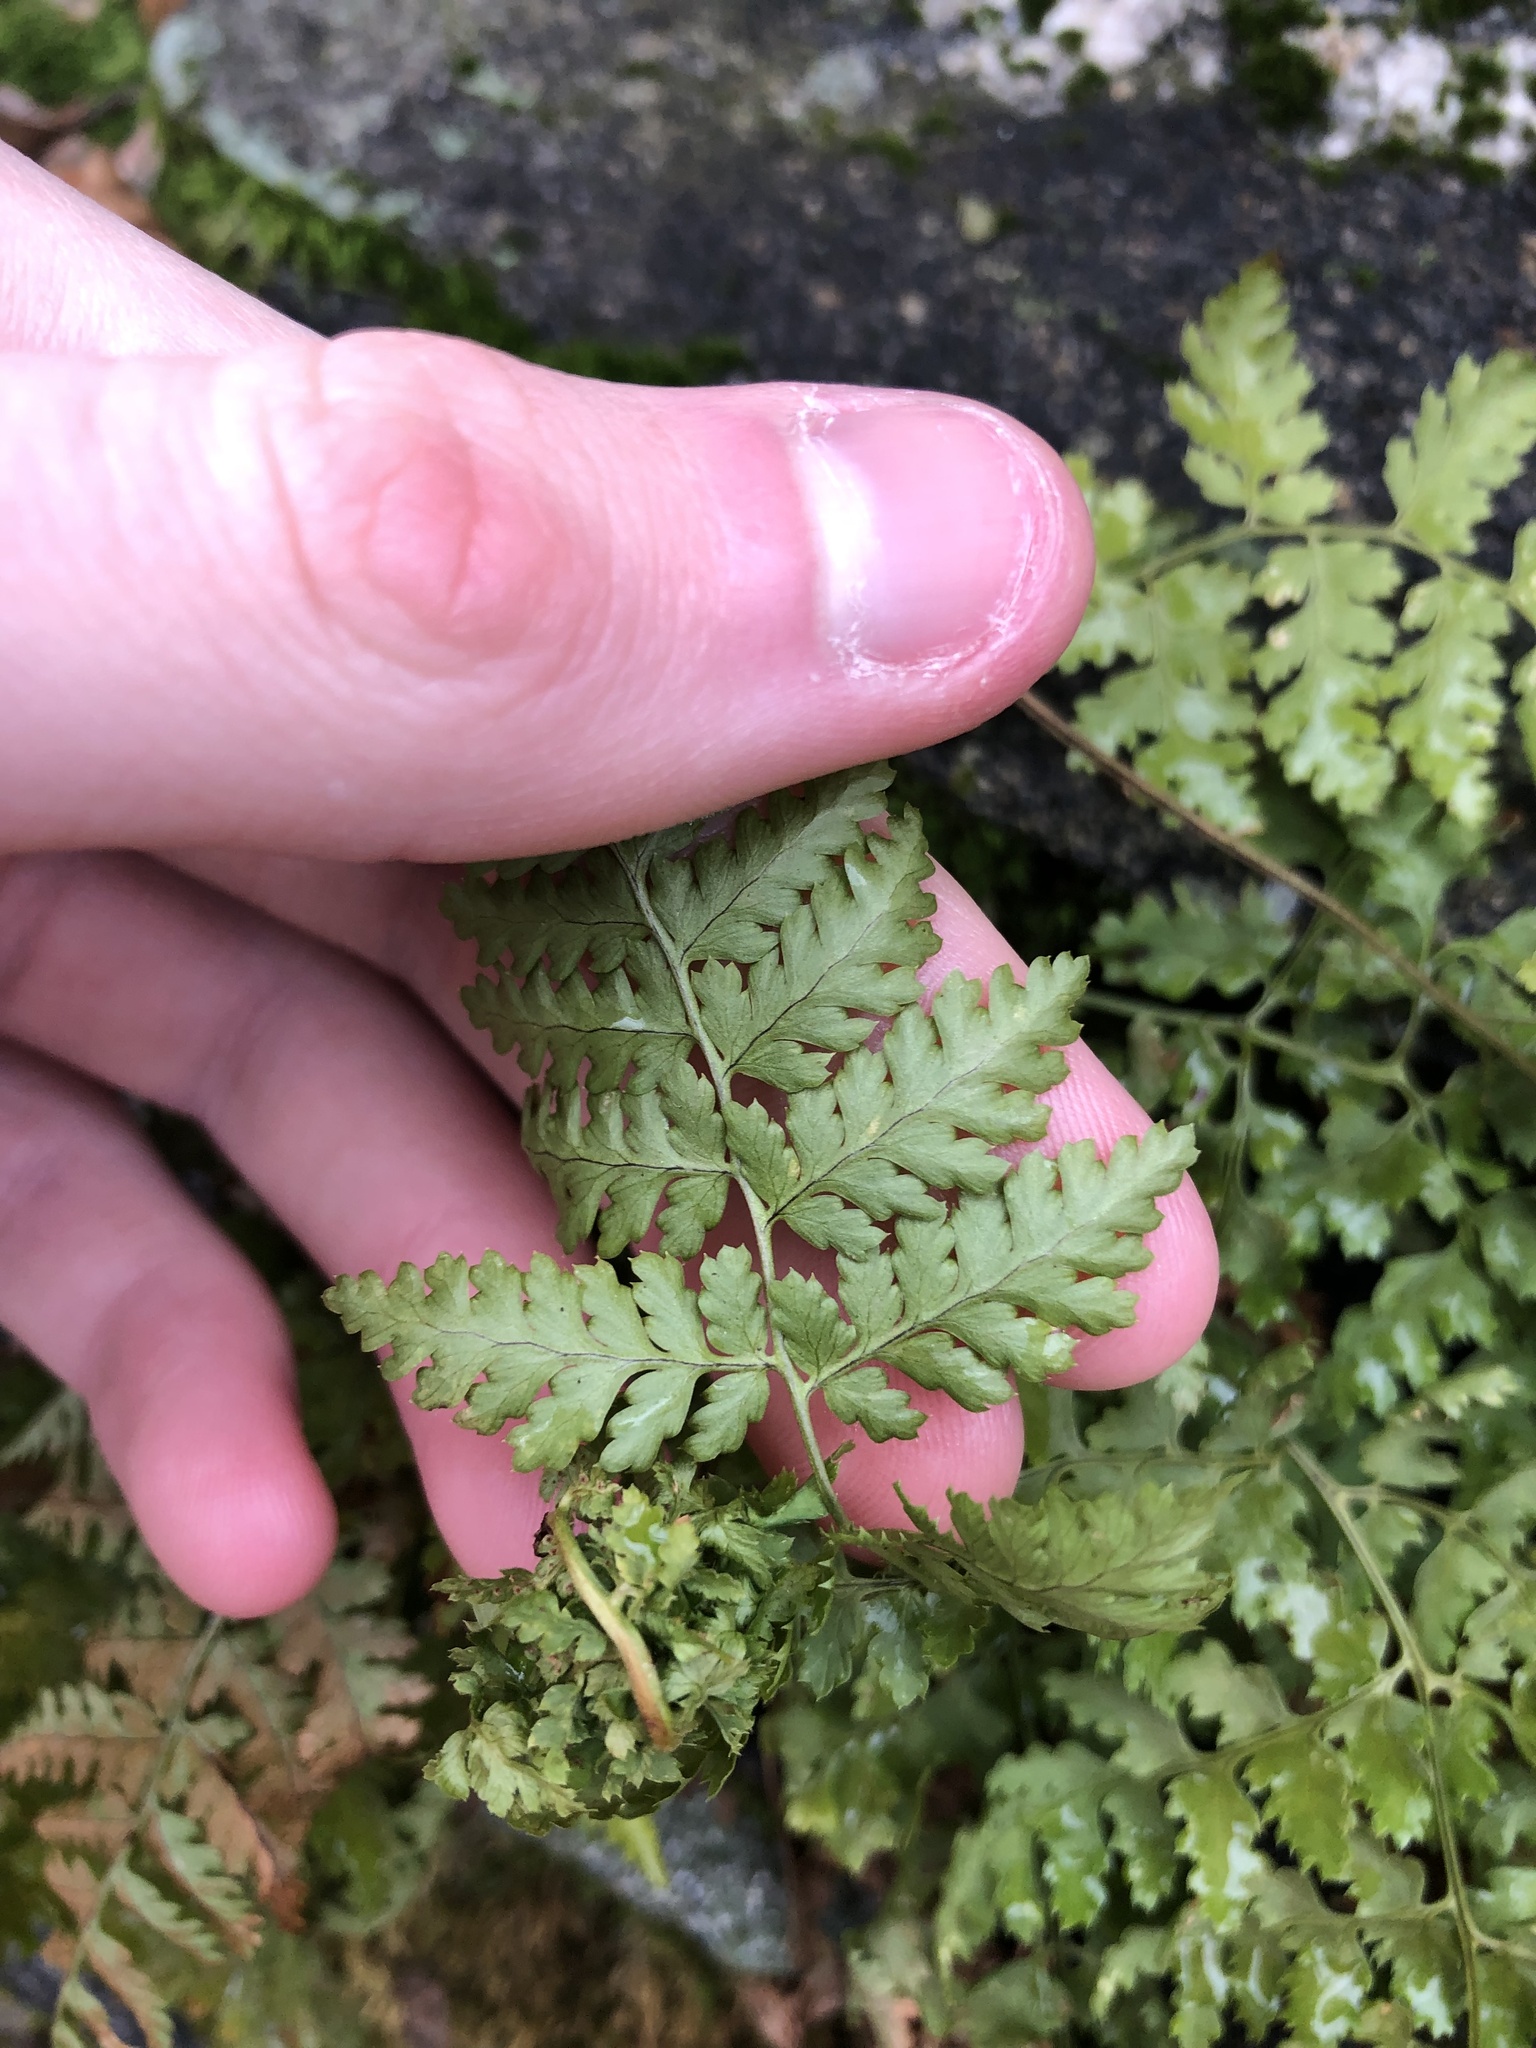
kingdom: Plantae
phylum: Tracheophyta
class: Polypodiopsida
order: Polypodiales
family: Dryopteridaceae
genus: Dryopteris
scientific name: Dryopteris intermedia
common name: Evergreen wood fern
